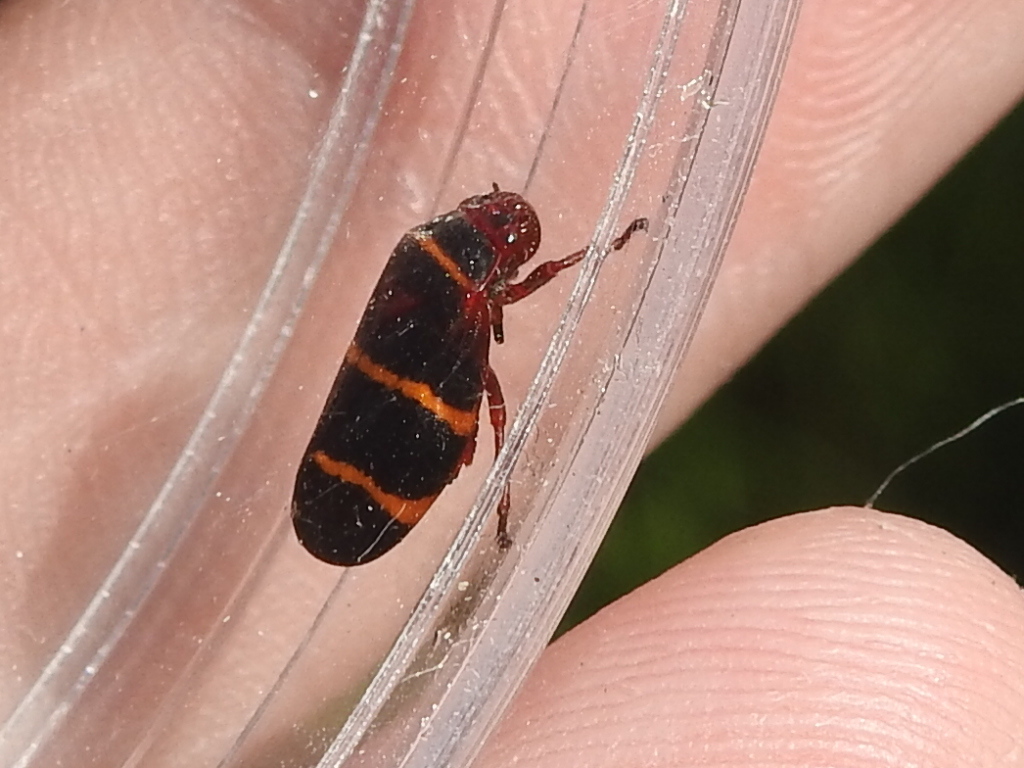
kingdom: Animalia
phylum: Arthropoda
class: Insecta
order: Hemiptera
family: Cercopidae
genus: Prosapia
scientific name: Prosapia bicincta
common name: Twolined spittlebug
